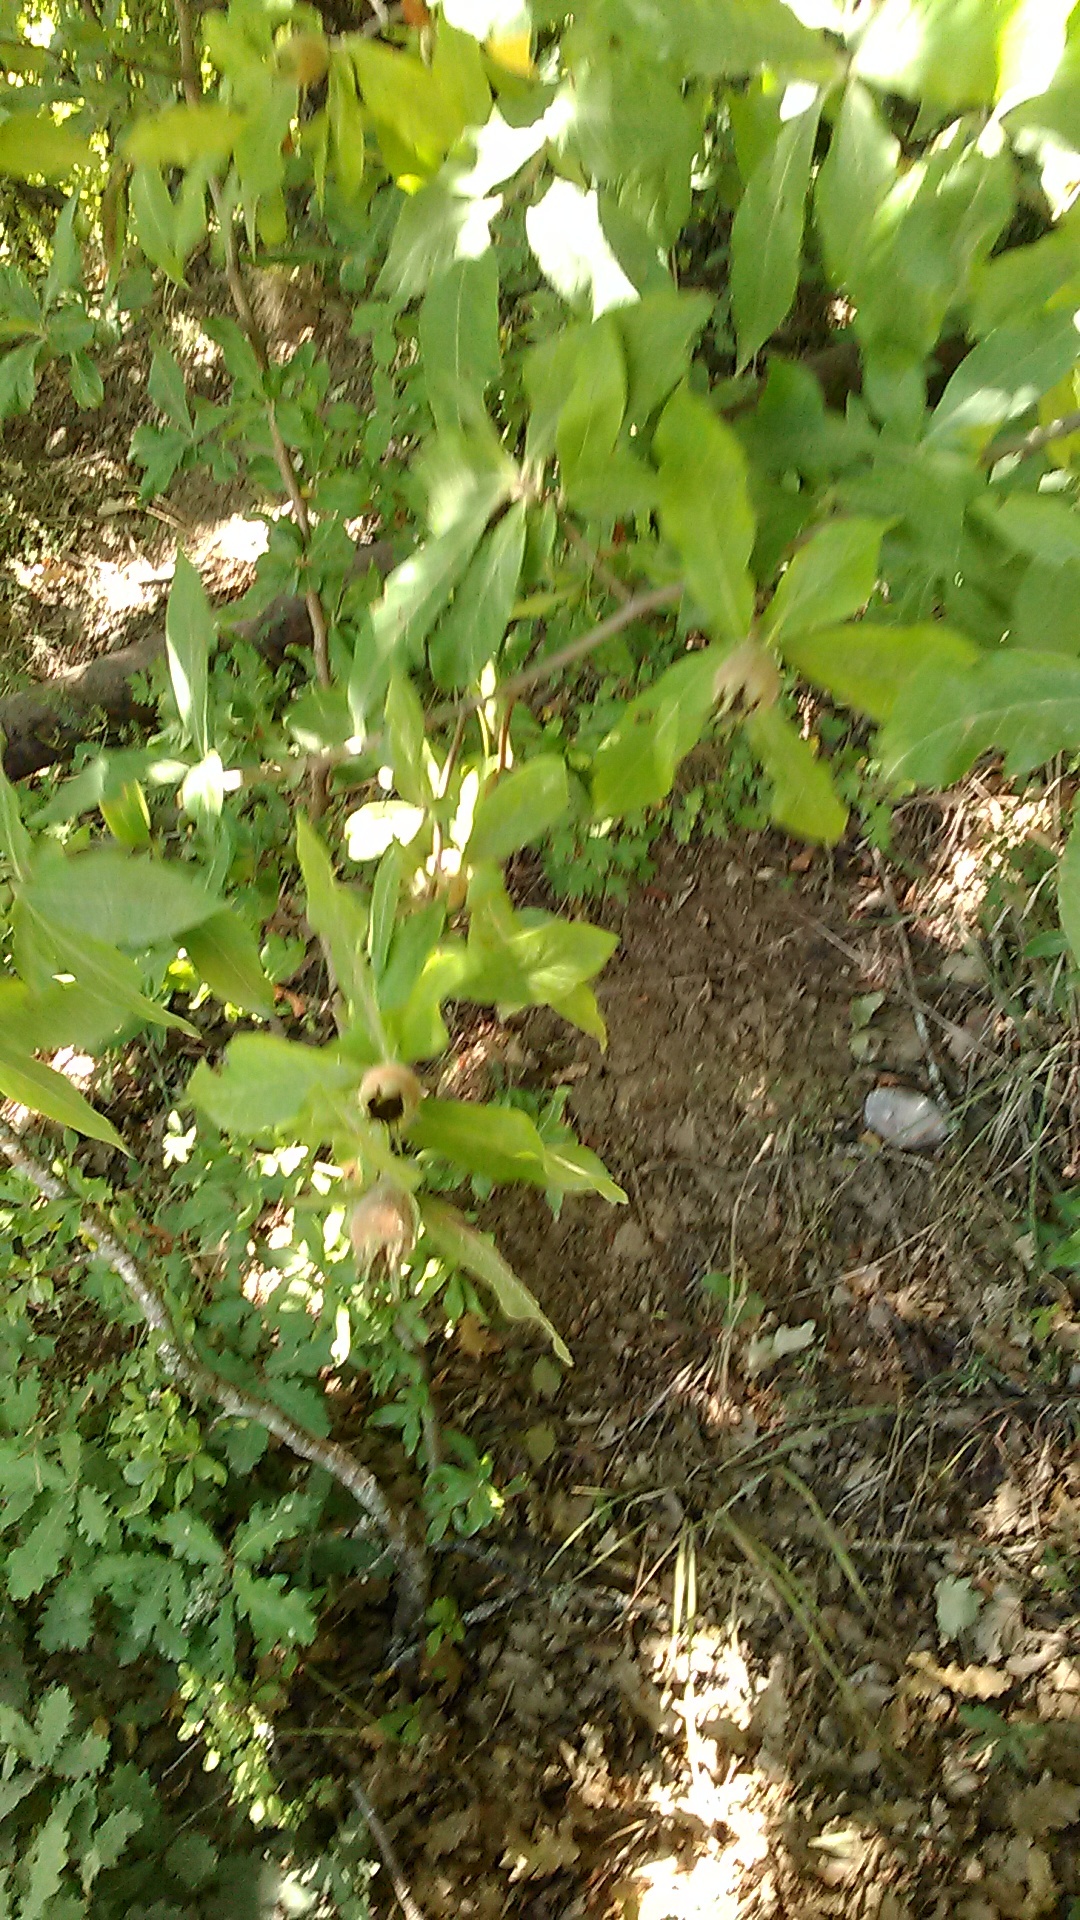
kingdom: Plantae
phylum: Tracheophyta
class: Magnoliopsida
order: Rosales
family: Rosaceae
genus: Mespilus
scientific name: Mespilus germanica
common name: Medlar
